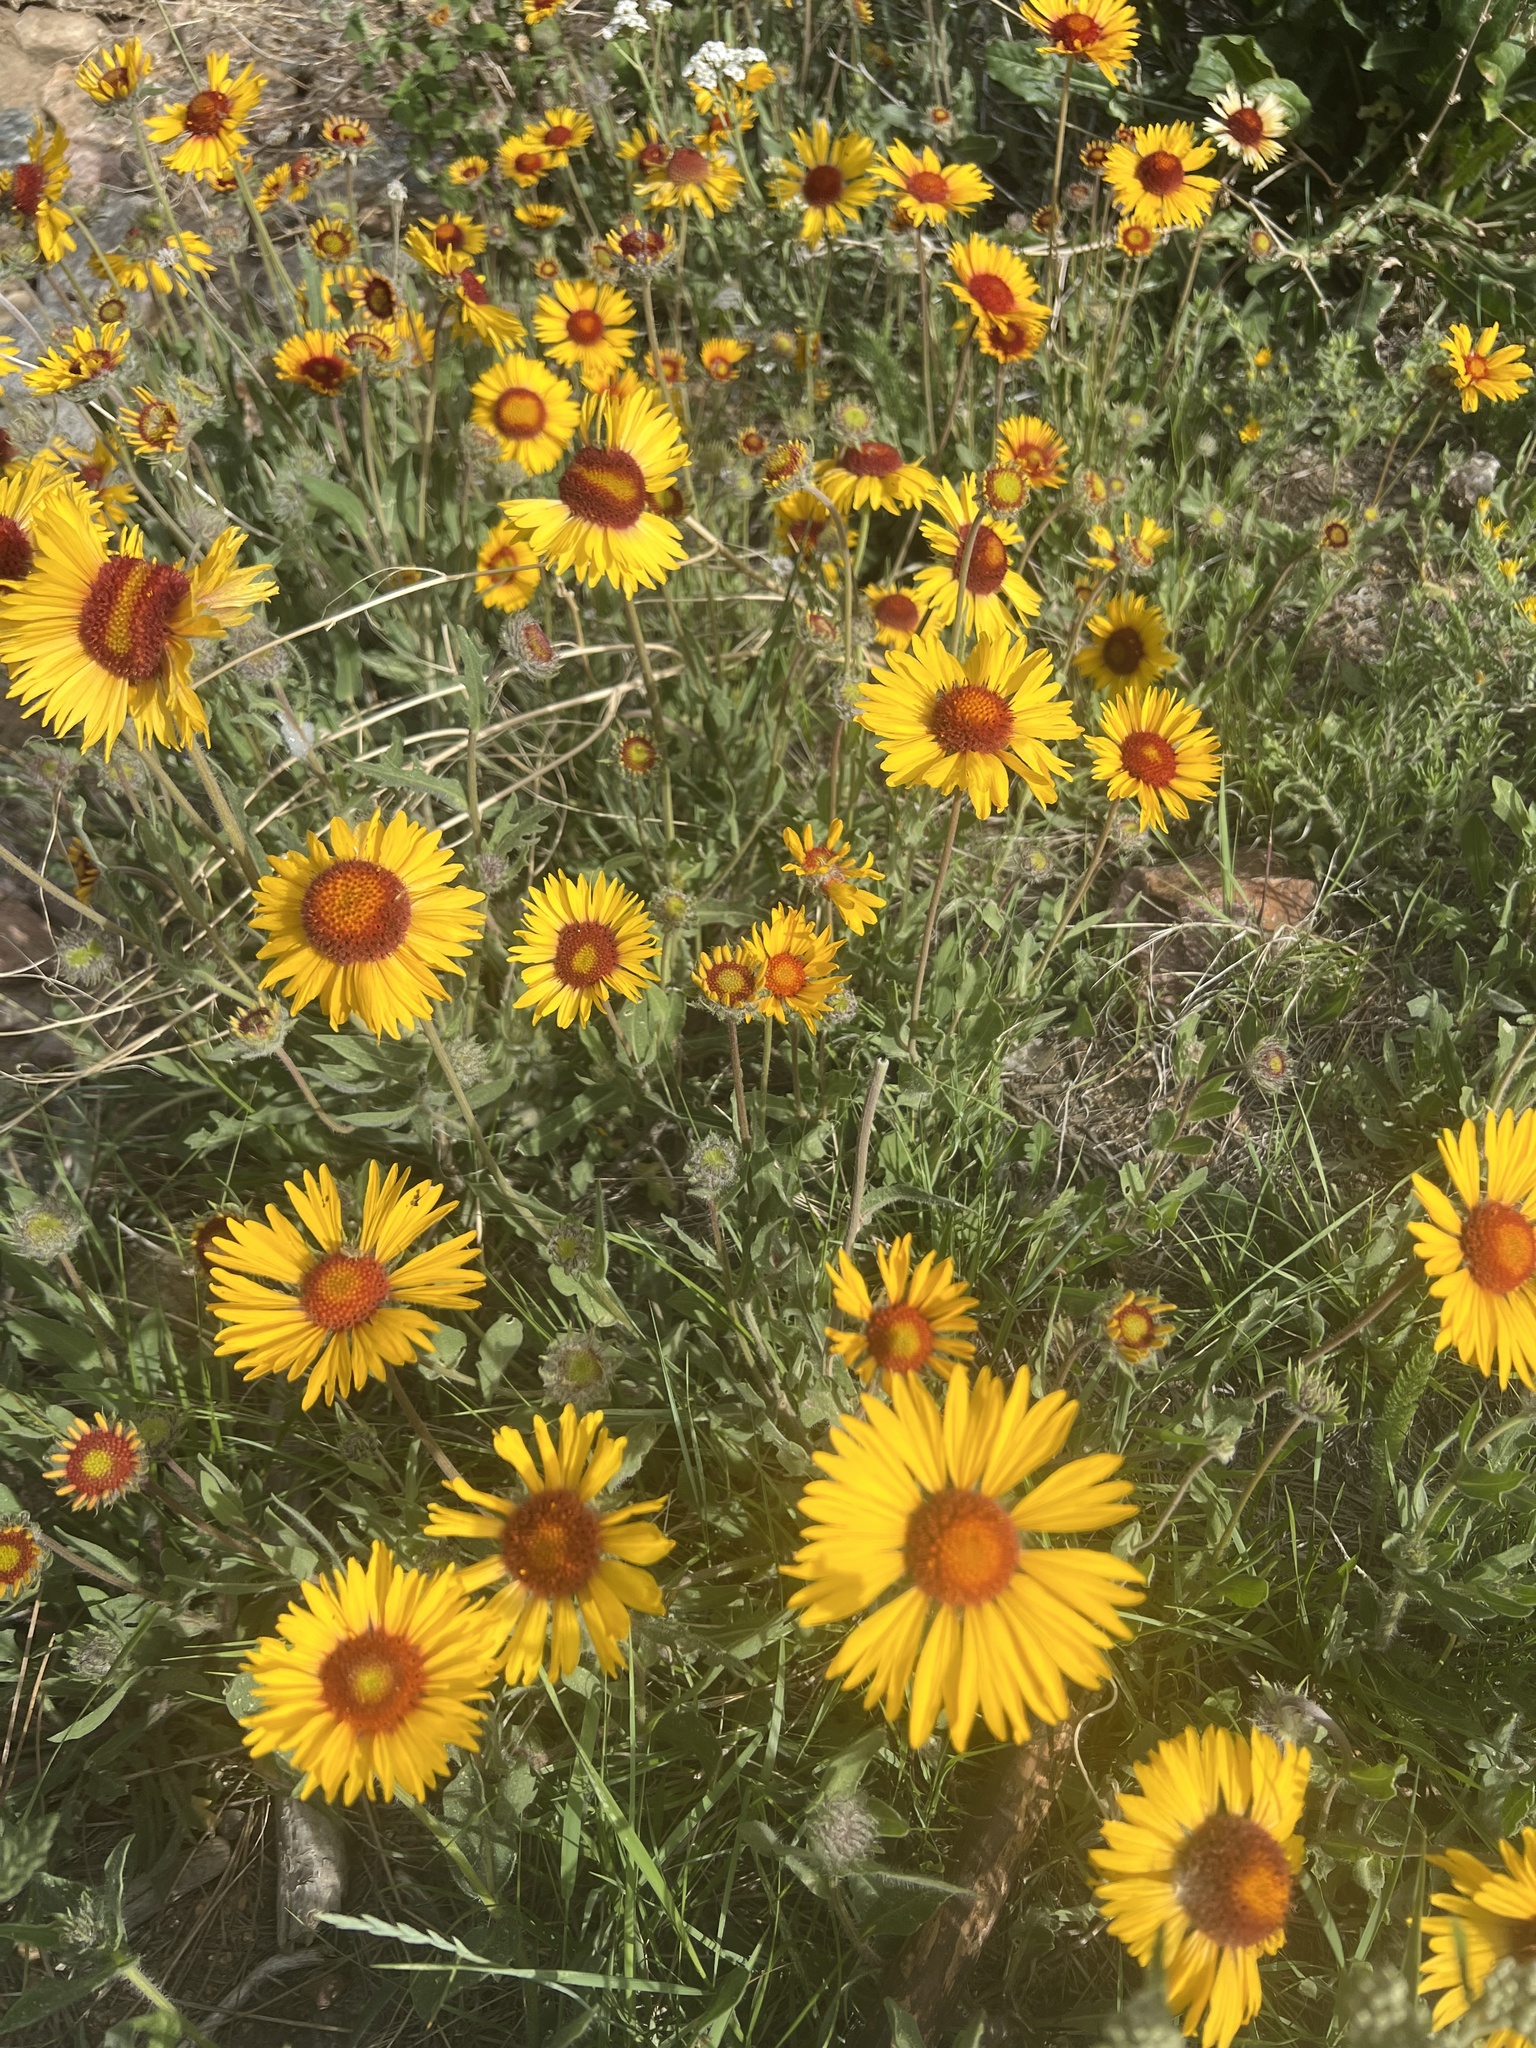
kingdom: Plantae
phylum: Tracheophyta
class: Magnoliopsida
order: Asterales
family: Asteraceae
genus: Gaillardia
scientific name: Gaillardia aristata
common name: Blanket-flower
